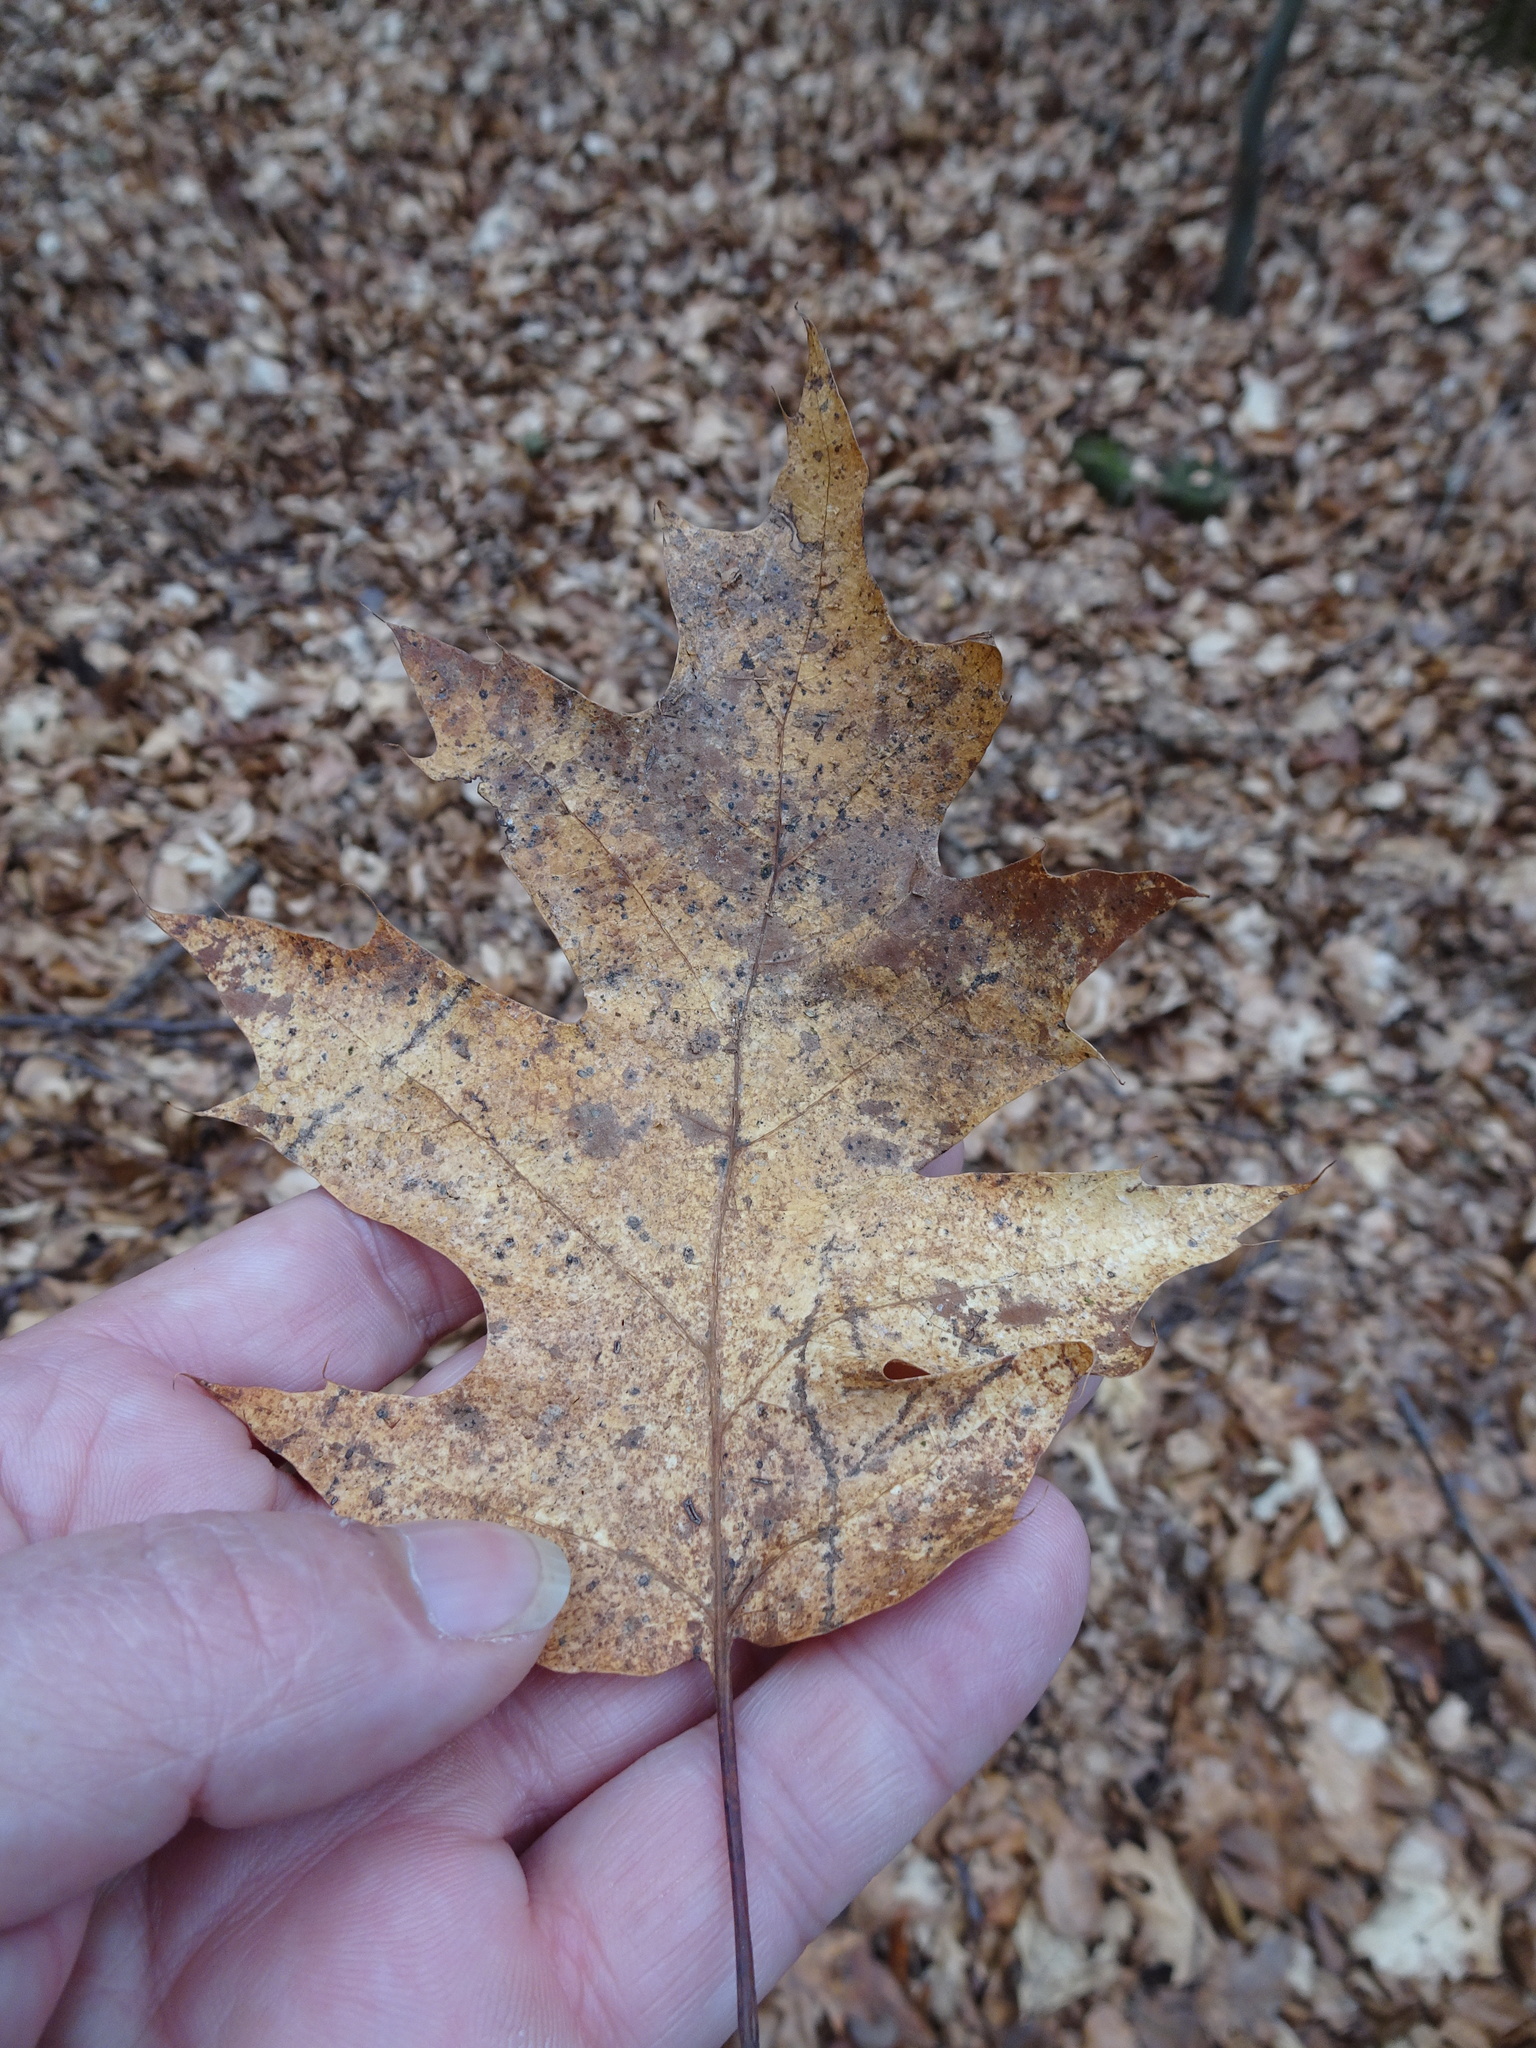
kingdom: Plantae
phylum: Tracheophyta
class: Magnoliopsida
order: Fagales
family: Fagaceae
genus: Quercus
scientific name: Quercus rubra
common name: Red oak
